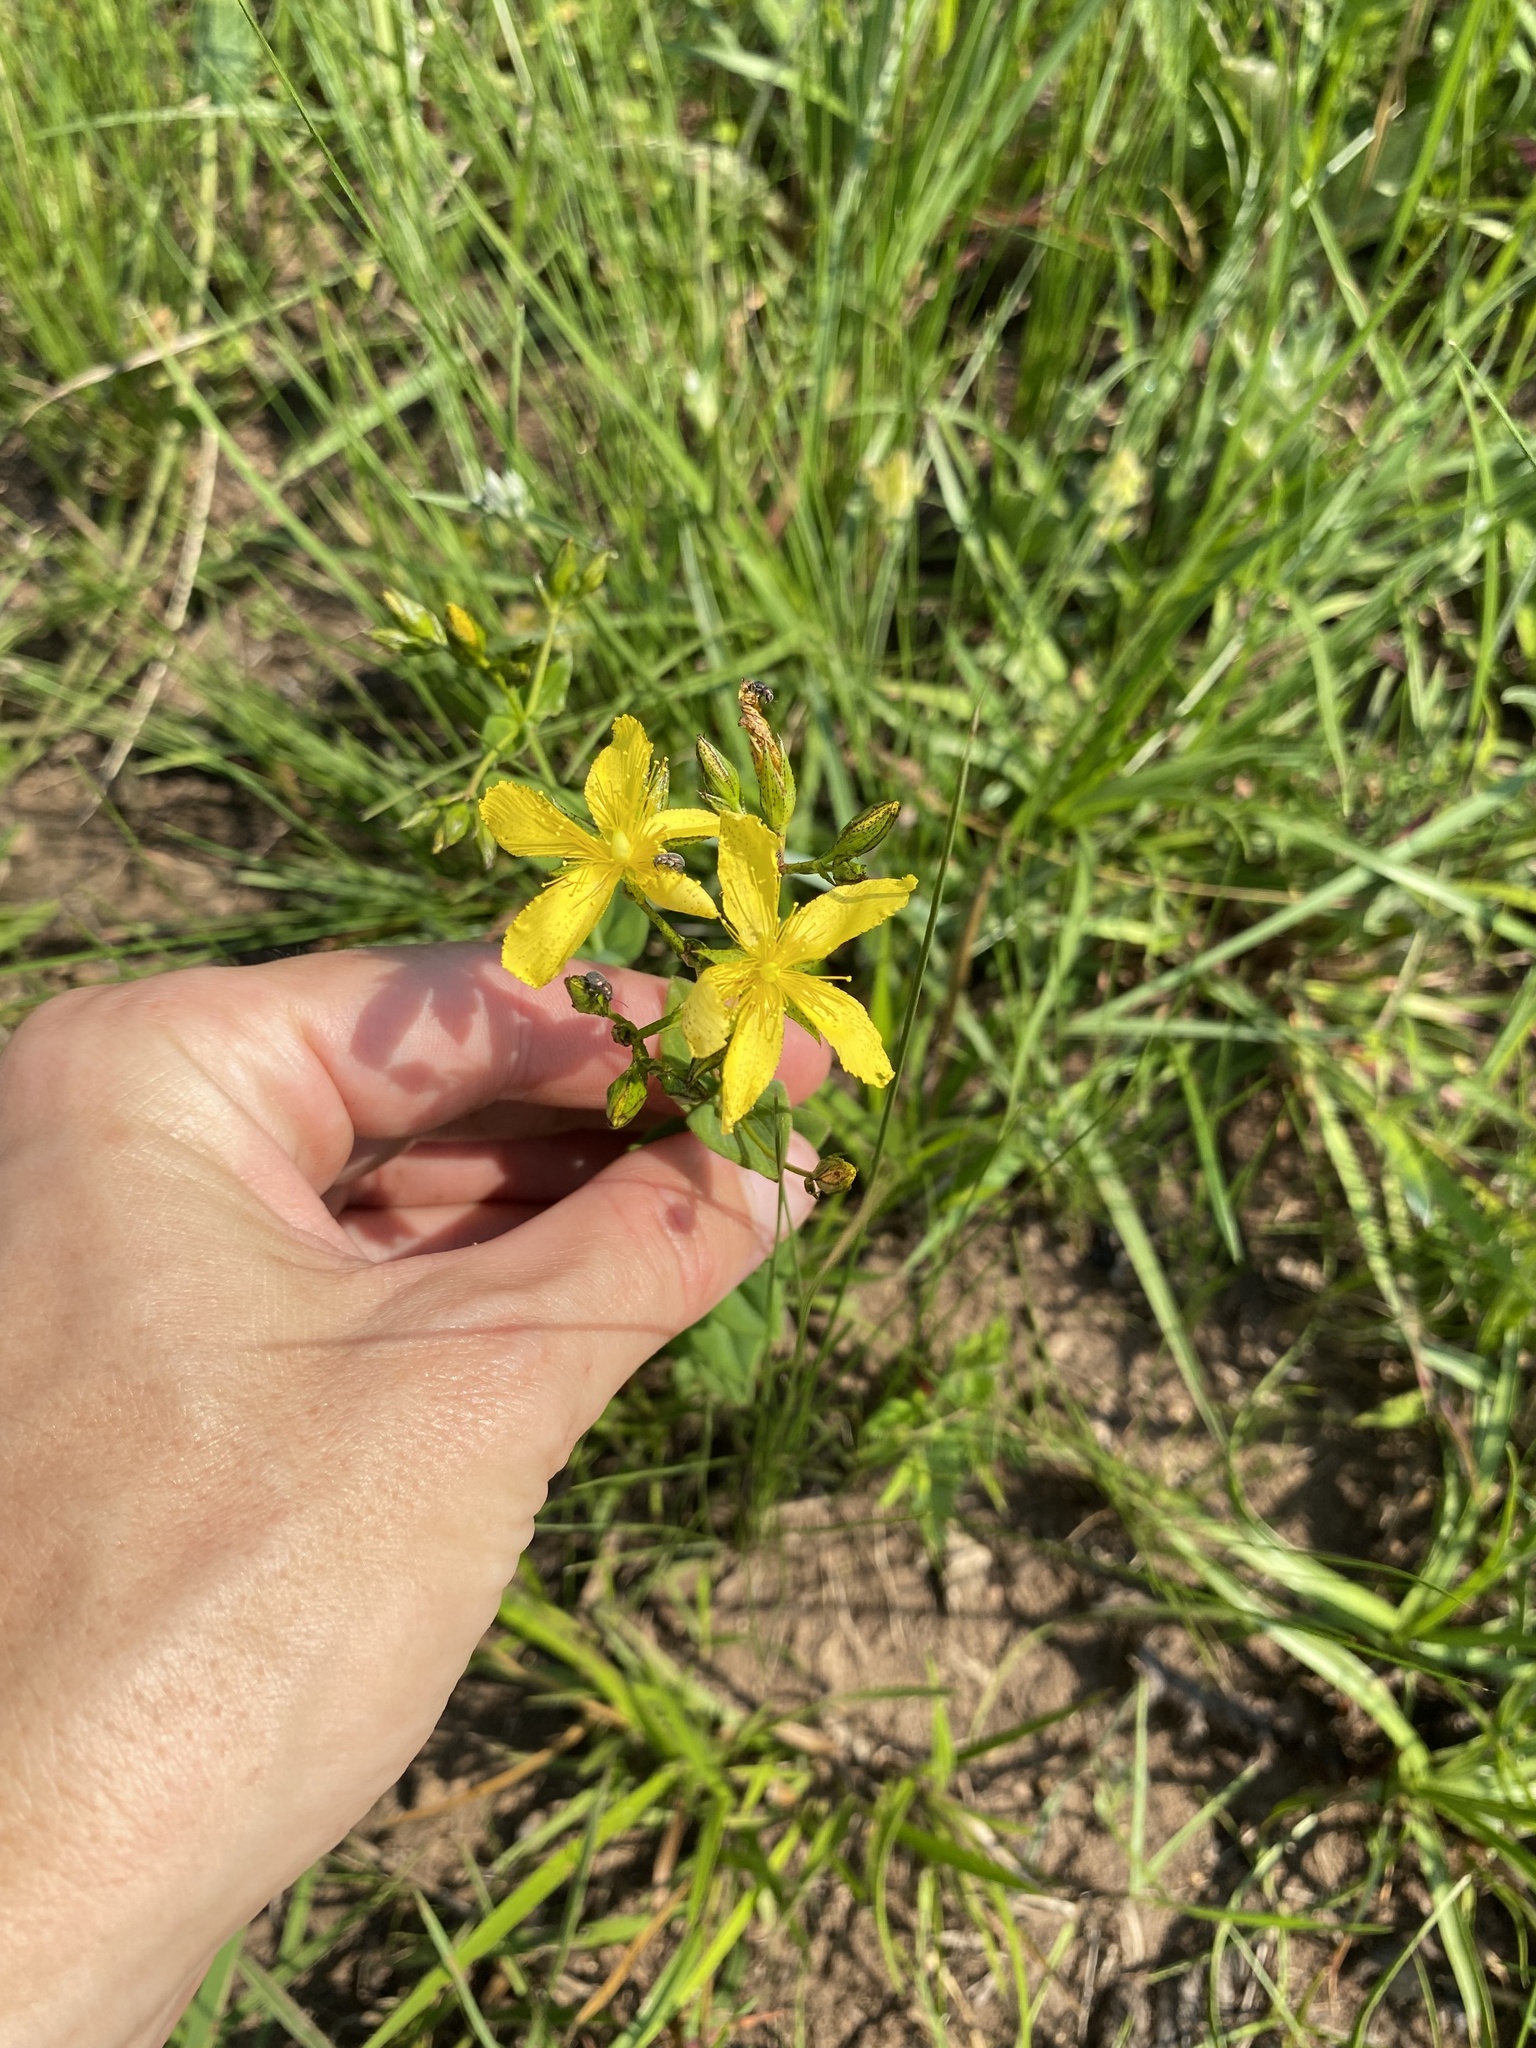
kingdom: Plantae
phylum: Tracheophyta
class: Magnoliopsida
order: Malpighiales
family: Hypericaceae
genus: Hypericum
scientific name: Hypericum aethiopicum
